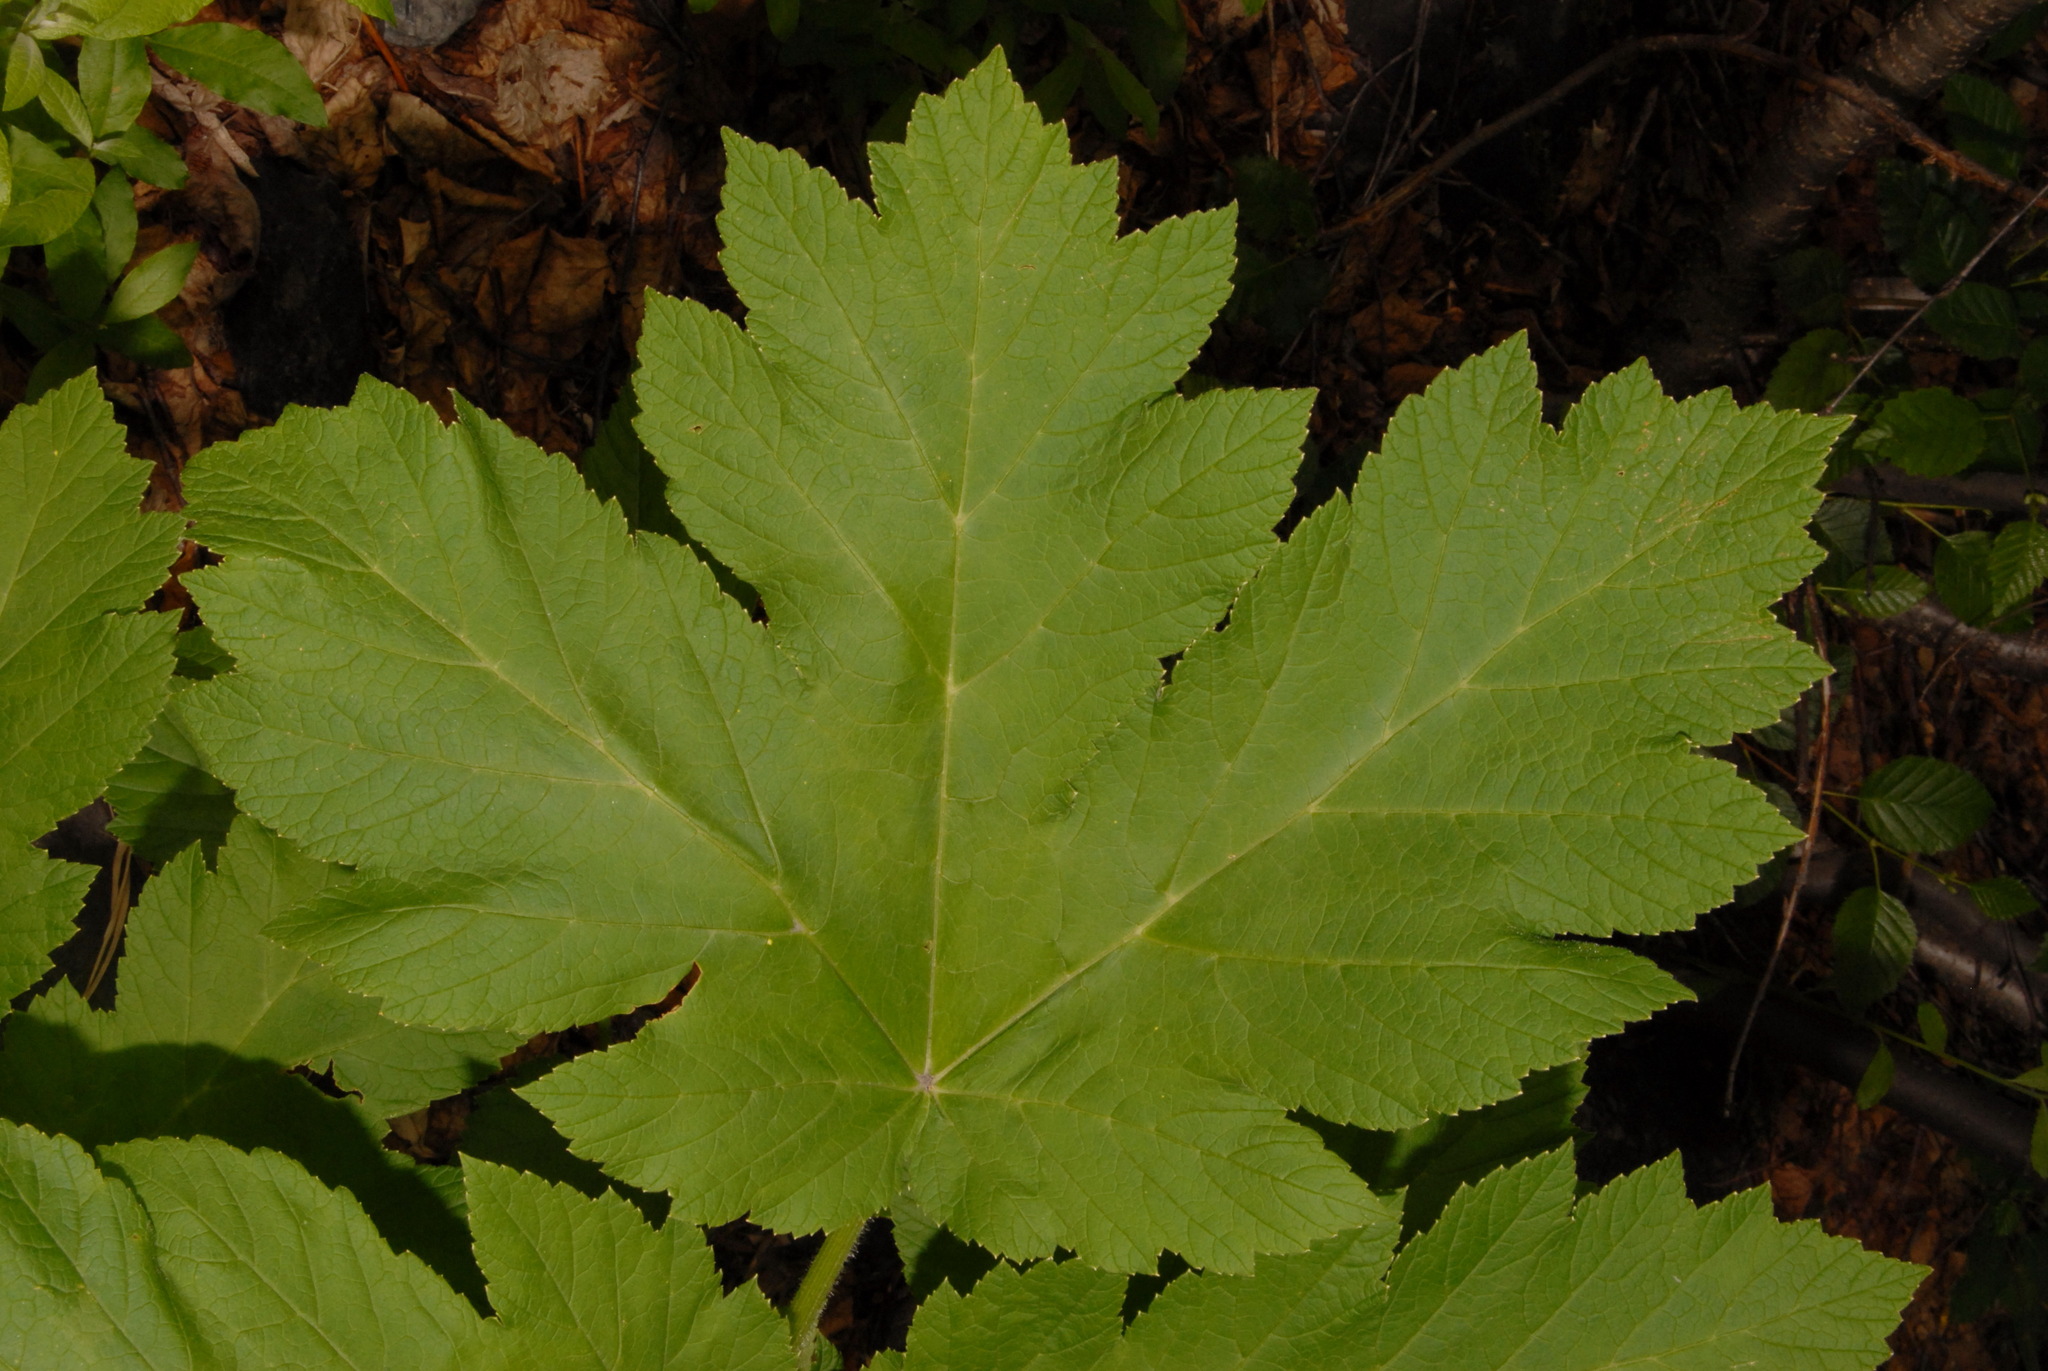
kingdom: Plantae
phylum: Tracheophyta
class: Magnoliopsida
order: Apiales
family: Apiaceae
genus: Heracleum
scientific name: Heracleum maximum
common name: American cow parsnip
